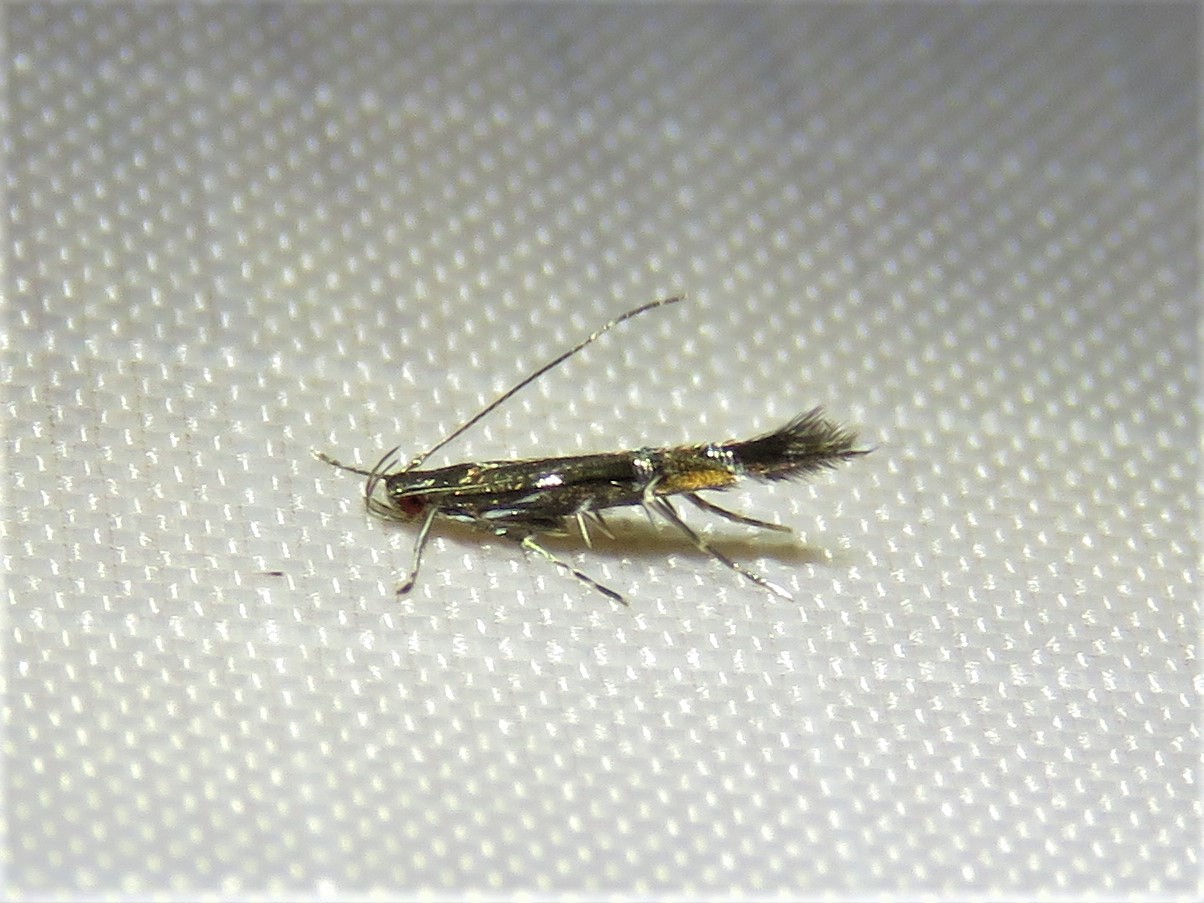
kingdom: Animalia
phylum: Arthropoda
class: Insecta
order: Lepidoptera
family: Cosmopterigidae
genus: Cosmopterix
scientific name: Cosmopterix pulchrimella
